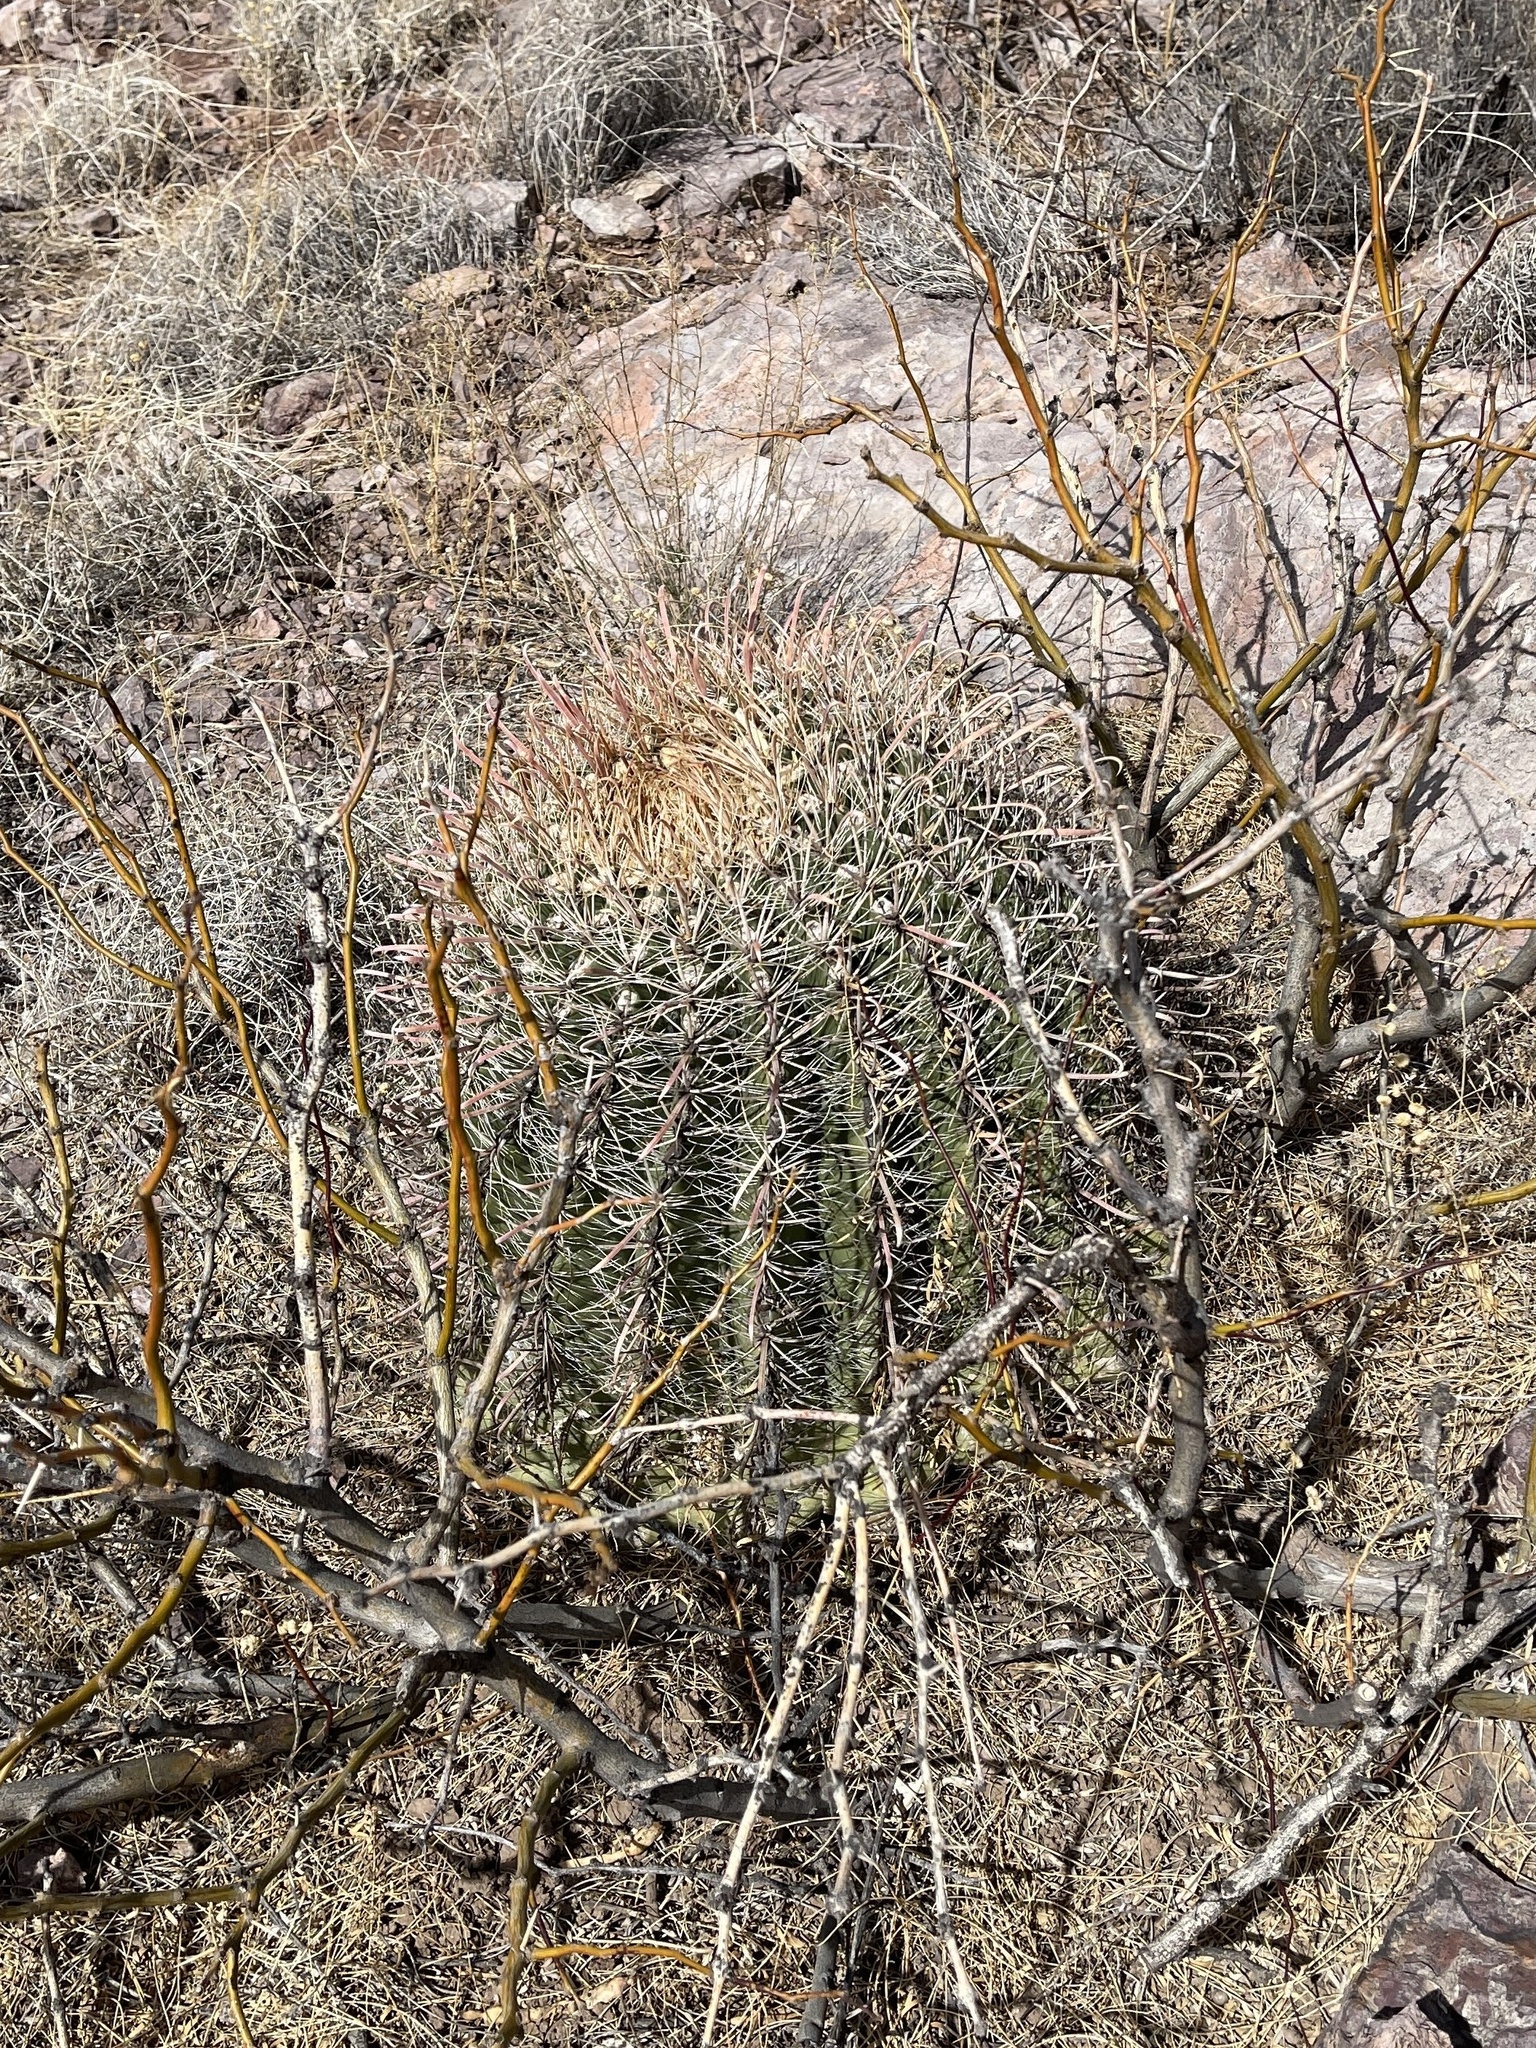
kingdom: Plantae
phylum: Tracheophyta
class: Magnoliopsida
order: Caryophyllales
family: Cactaceae
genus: Ferocactus
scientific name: Ferocactus wislizeni
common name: Candy barrel cactus
